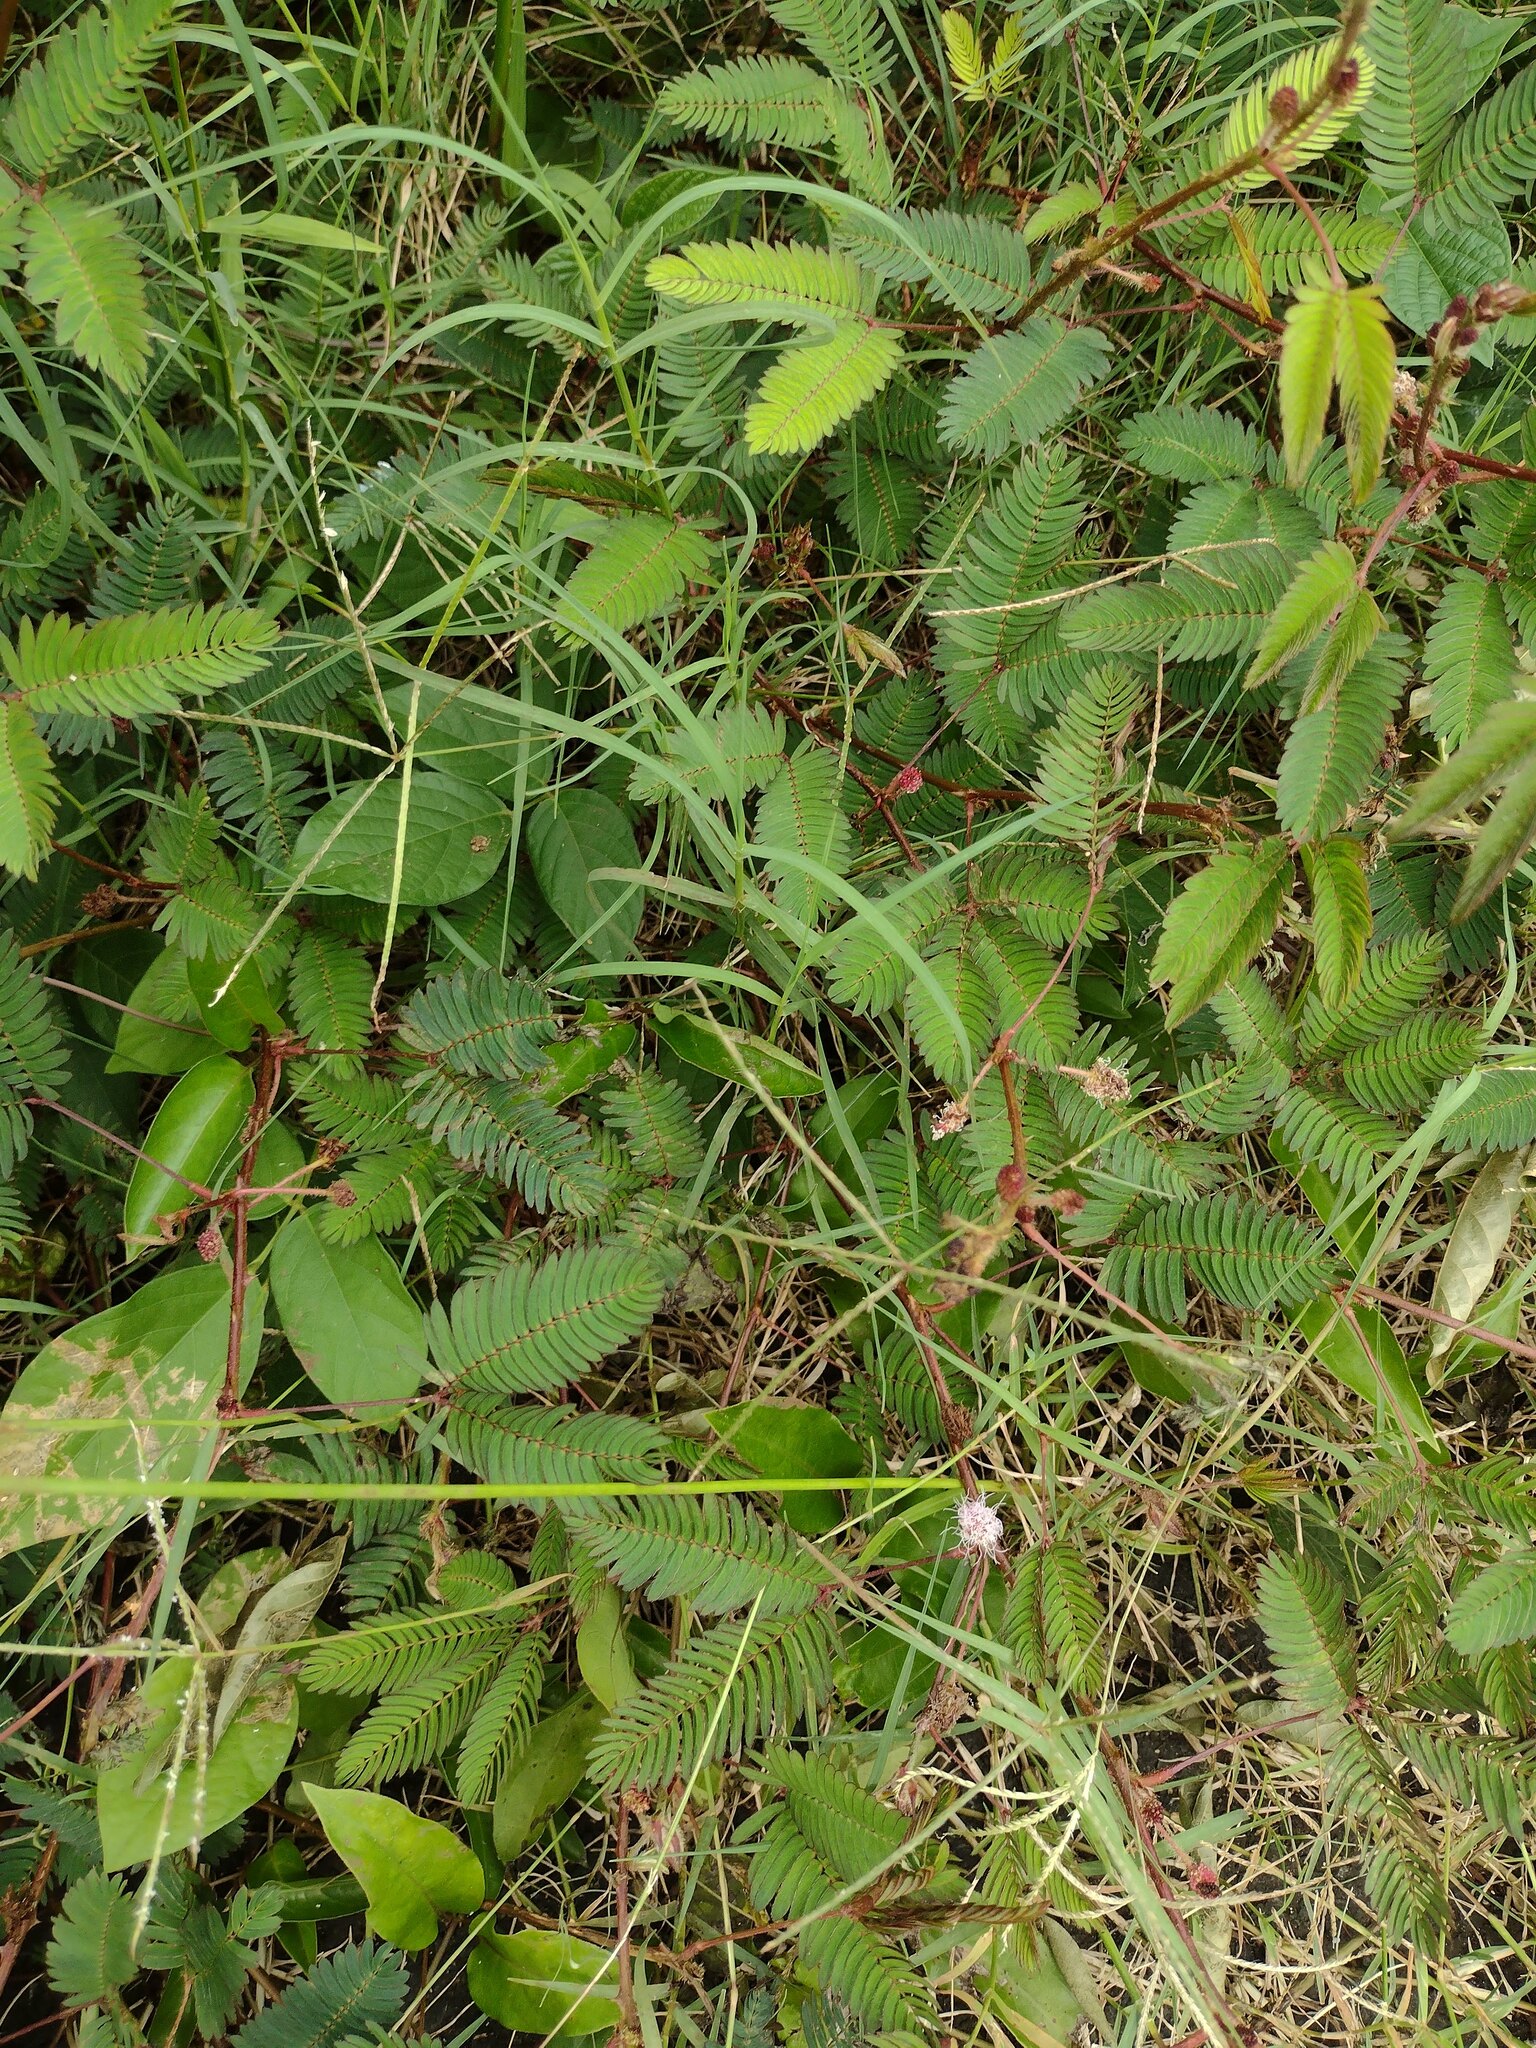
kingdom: Plantae
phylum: Tracheophyta
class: Liliopsida
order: Poales
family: Poaceae
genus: Cynodon
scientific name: Cynodon dactylon
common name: Bermuda grass
